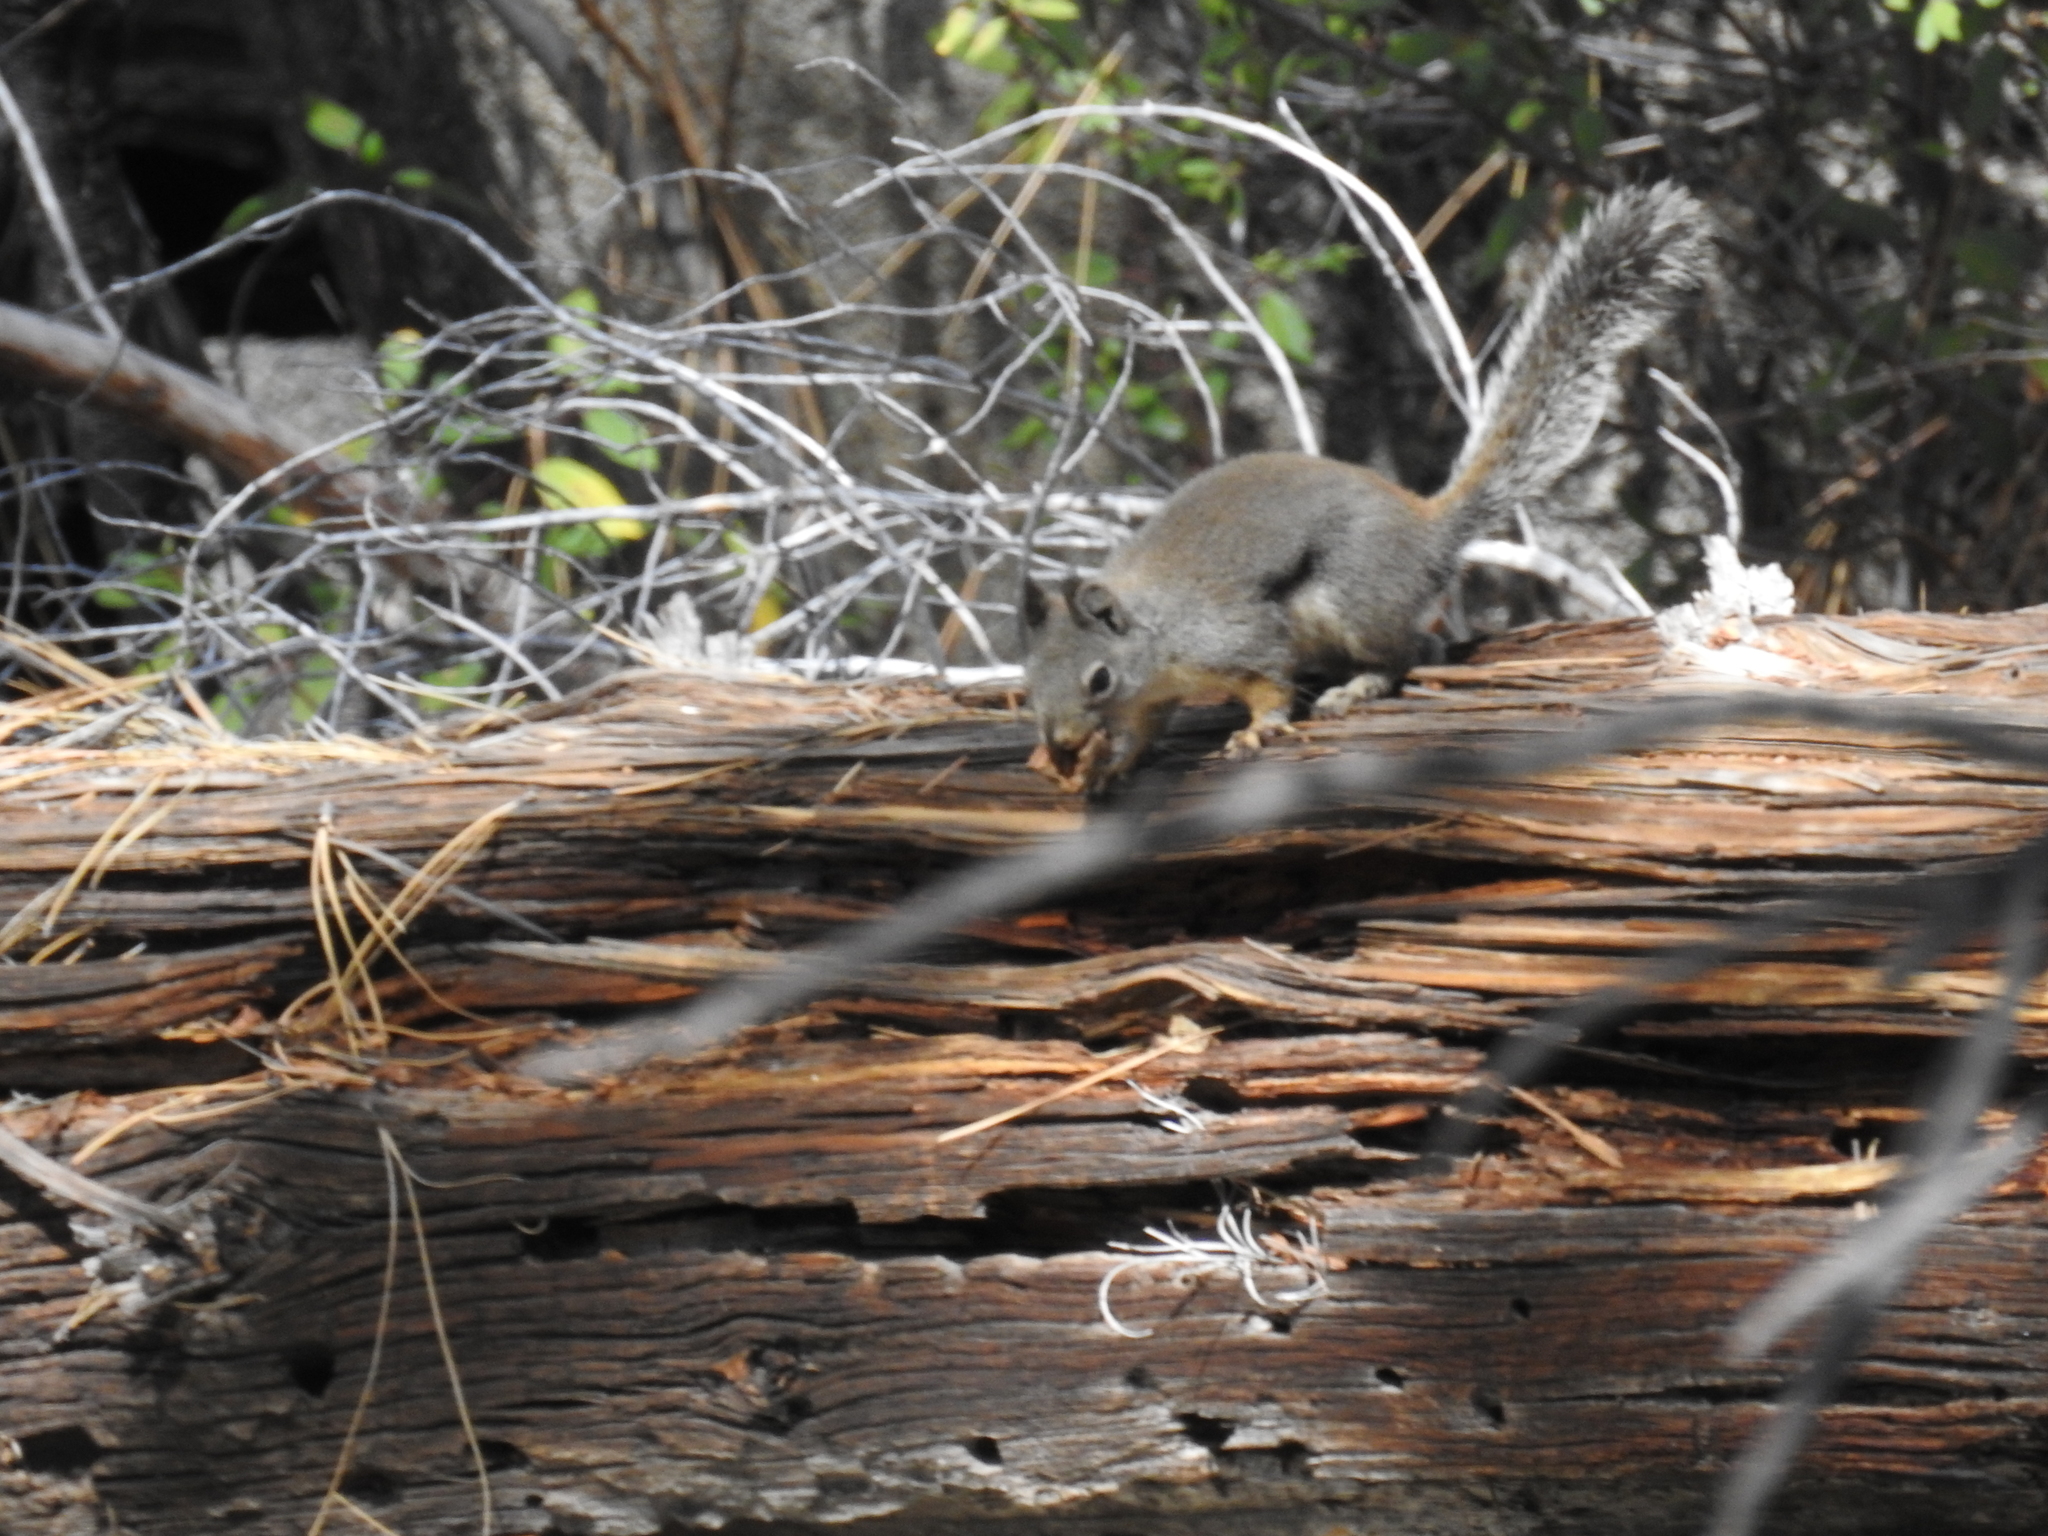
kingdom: Animalia
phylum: Chordata
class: Mammalia
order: Rodentia
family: Sciuridae
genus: Tamiasciurus
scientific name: Tamiasciurus douglasii
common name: Douglas's squirrel
